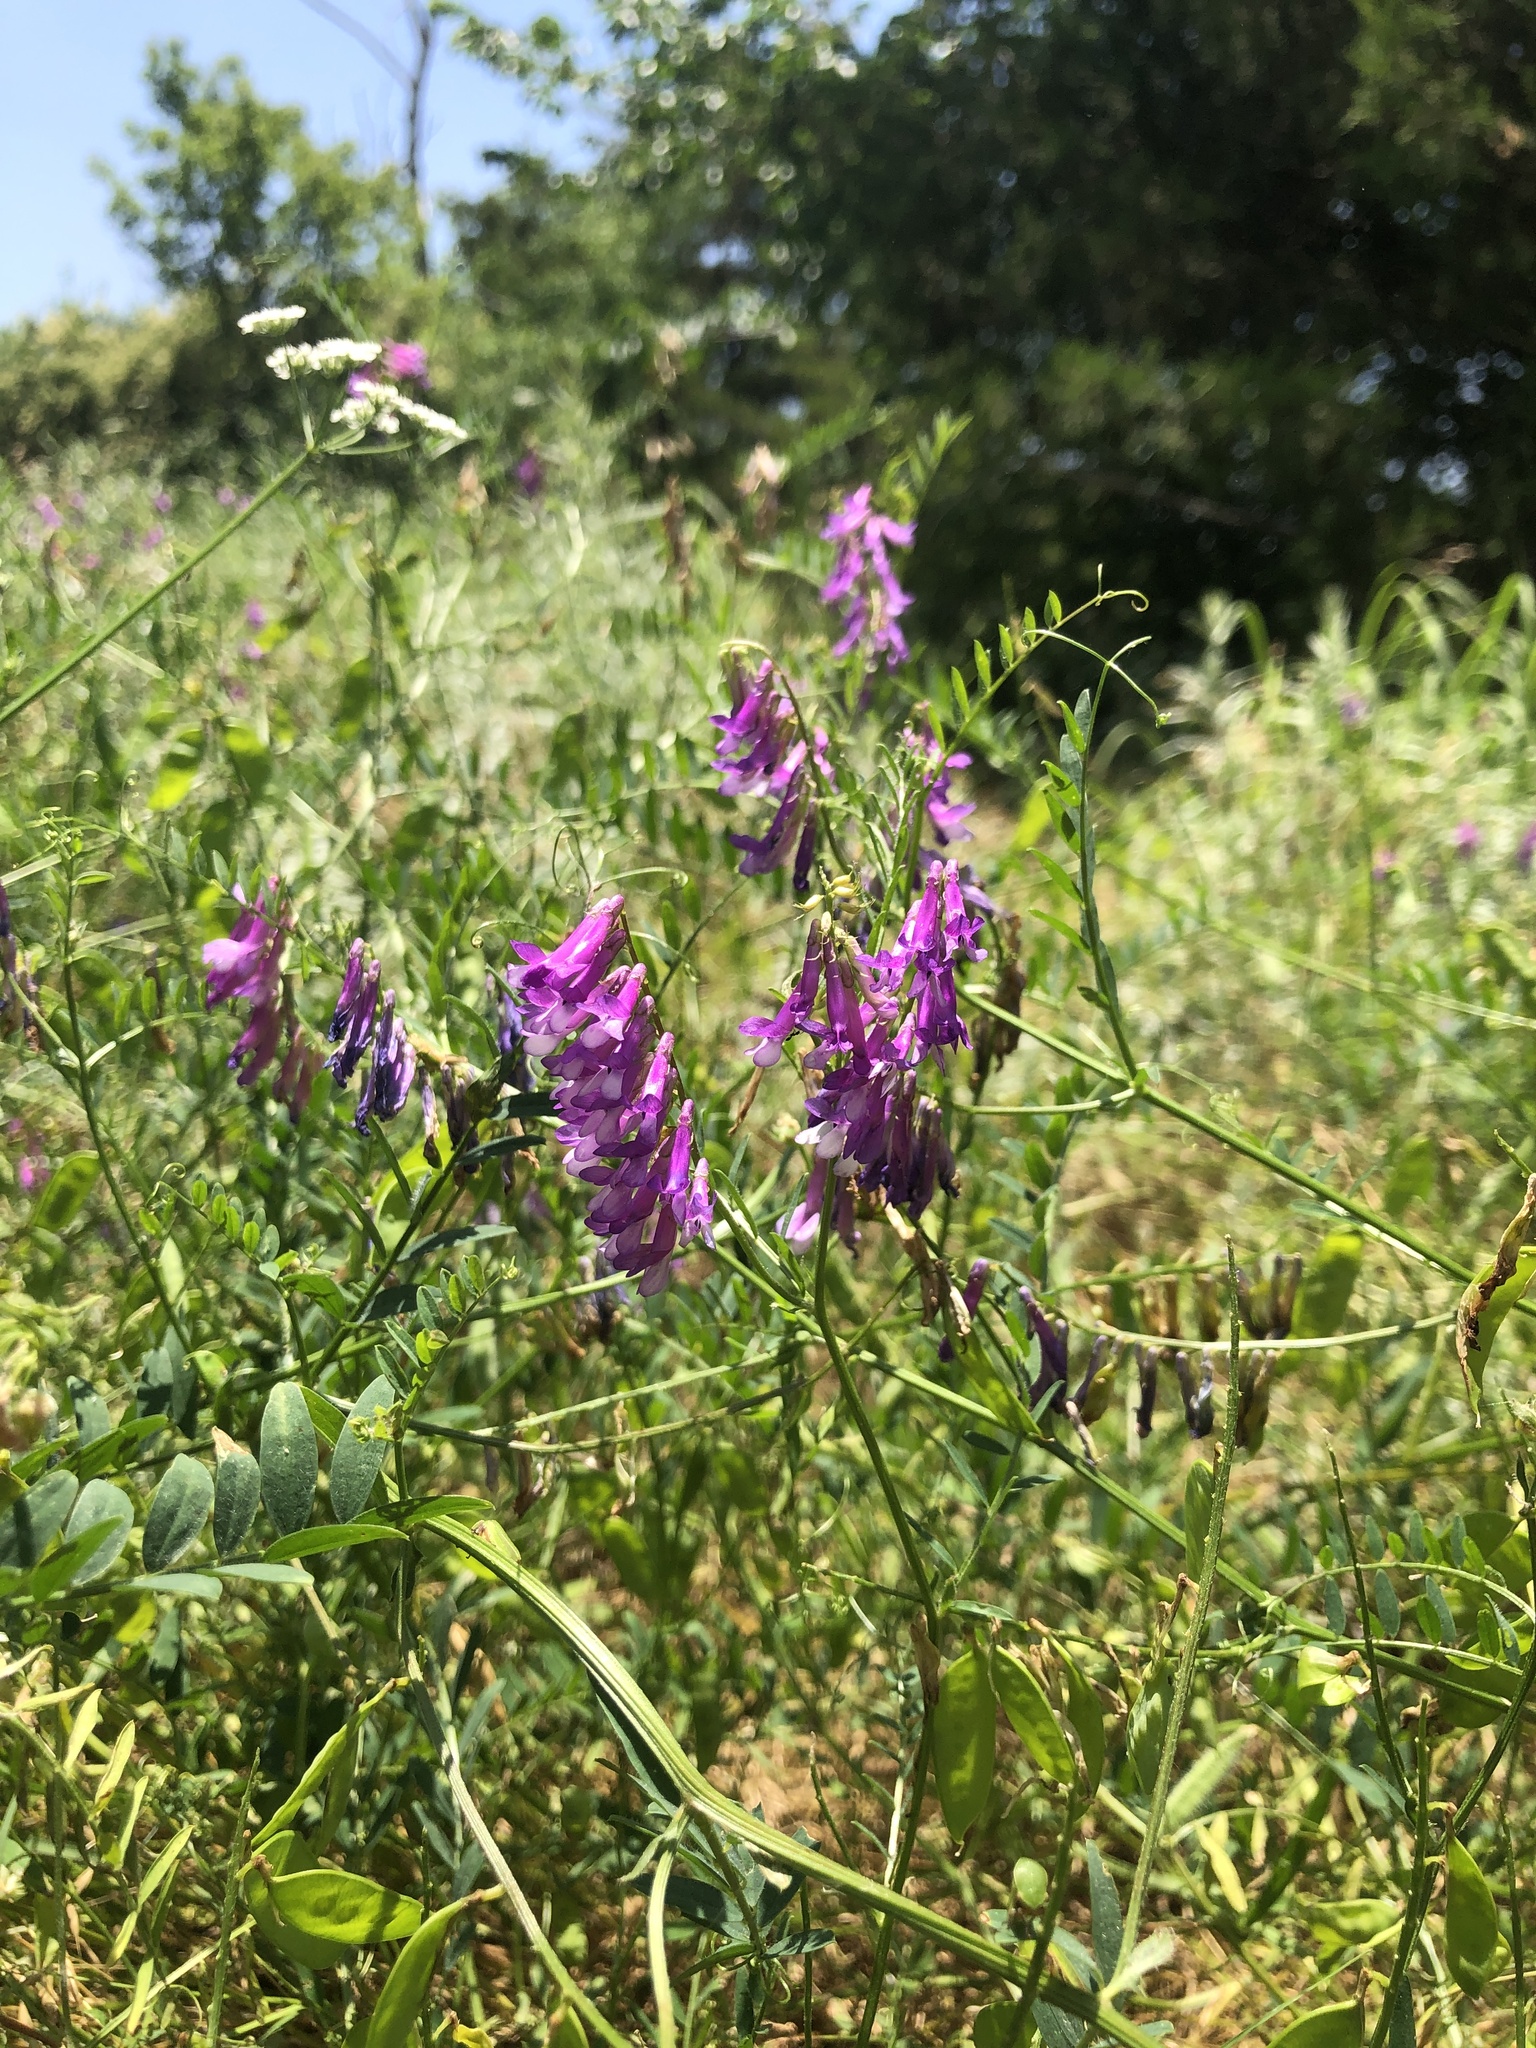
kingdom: Plantae
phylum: Tracheophyta
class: Magnoliopsida
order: Fabales
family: Fabaceae
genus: Vicia
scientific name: Vicia villosa
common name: Fodder vetch
